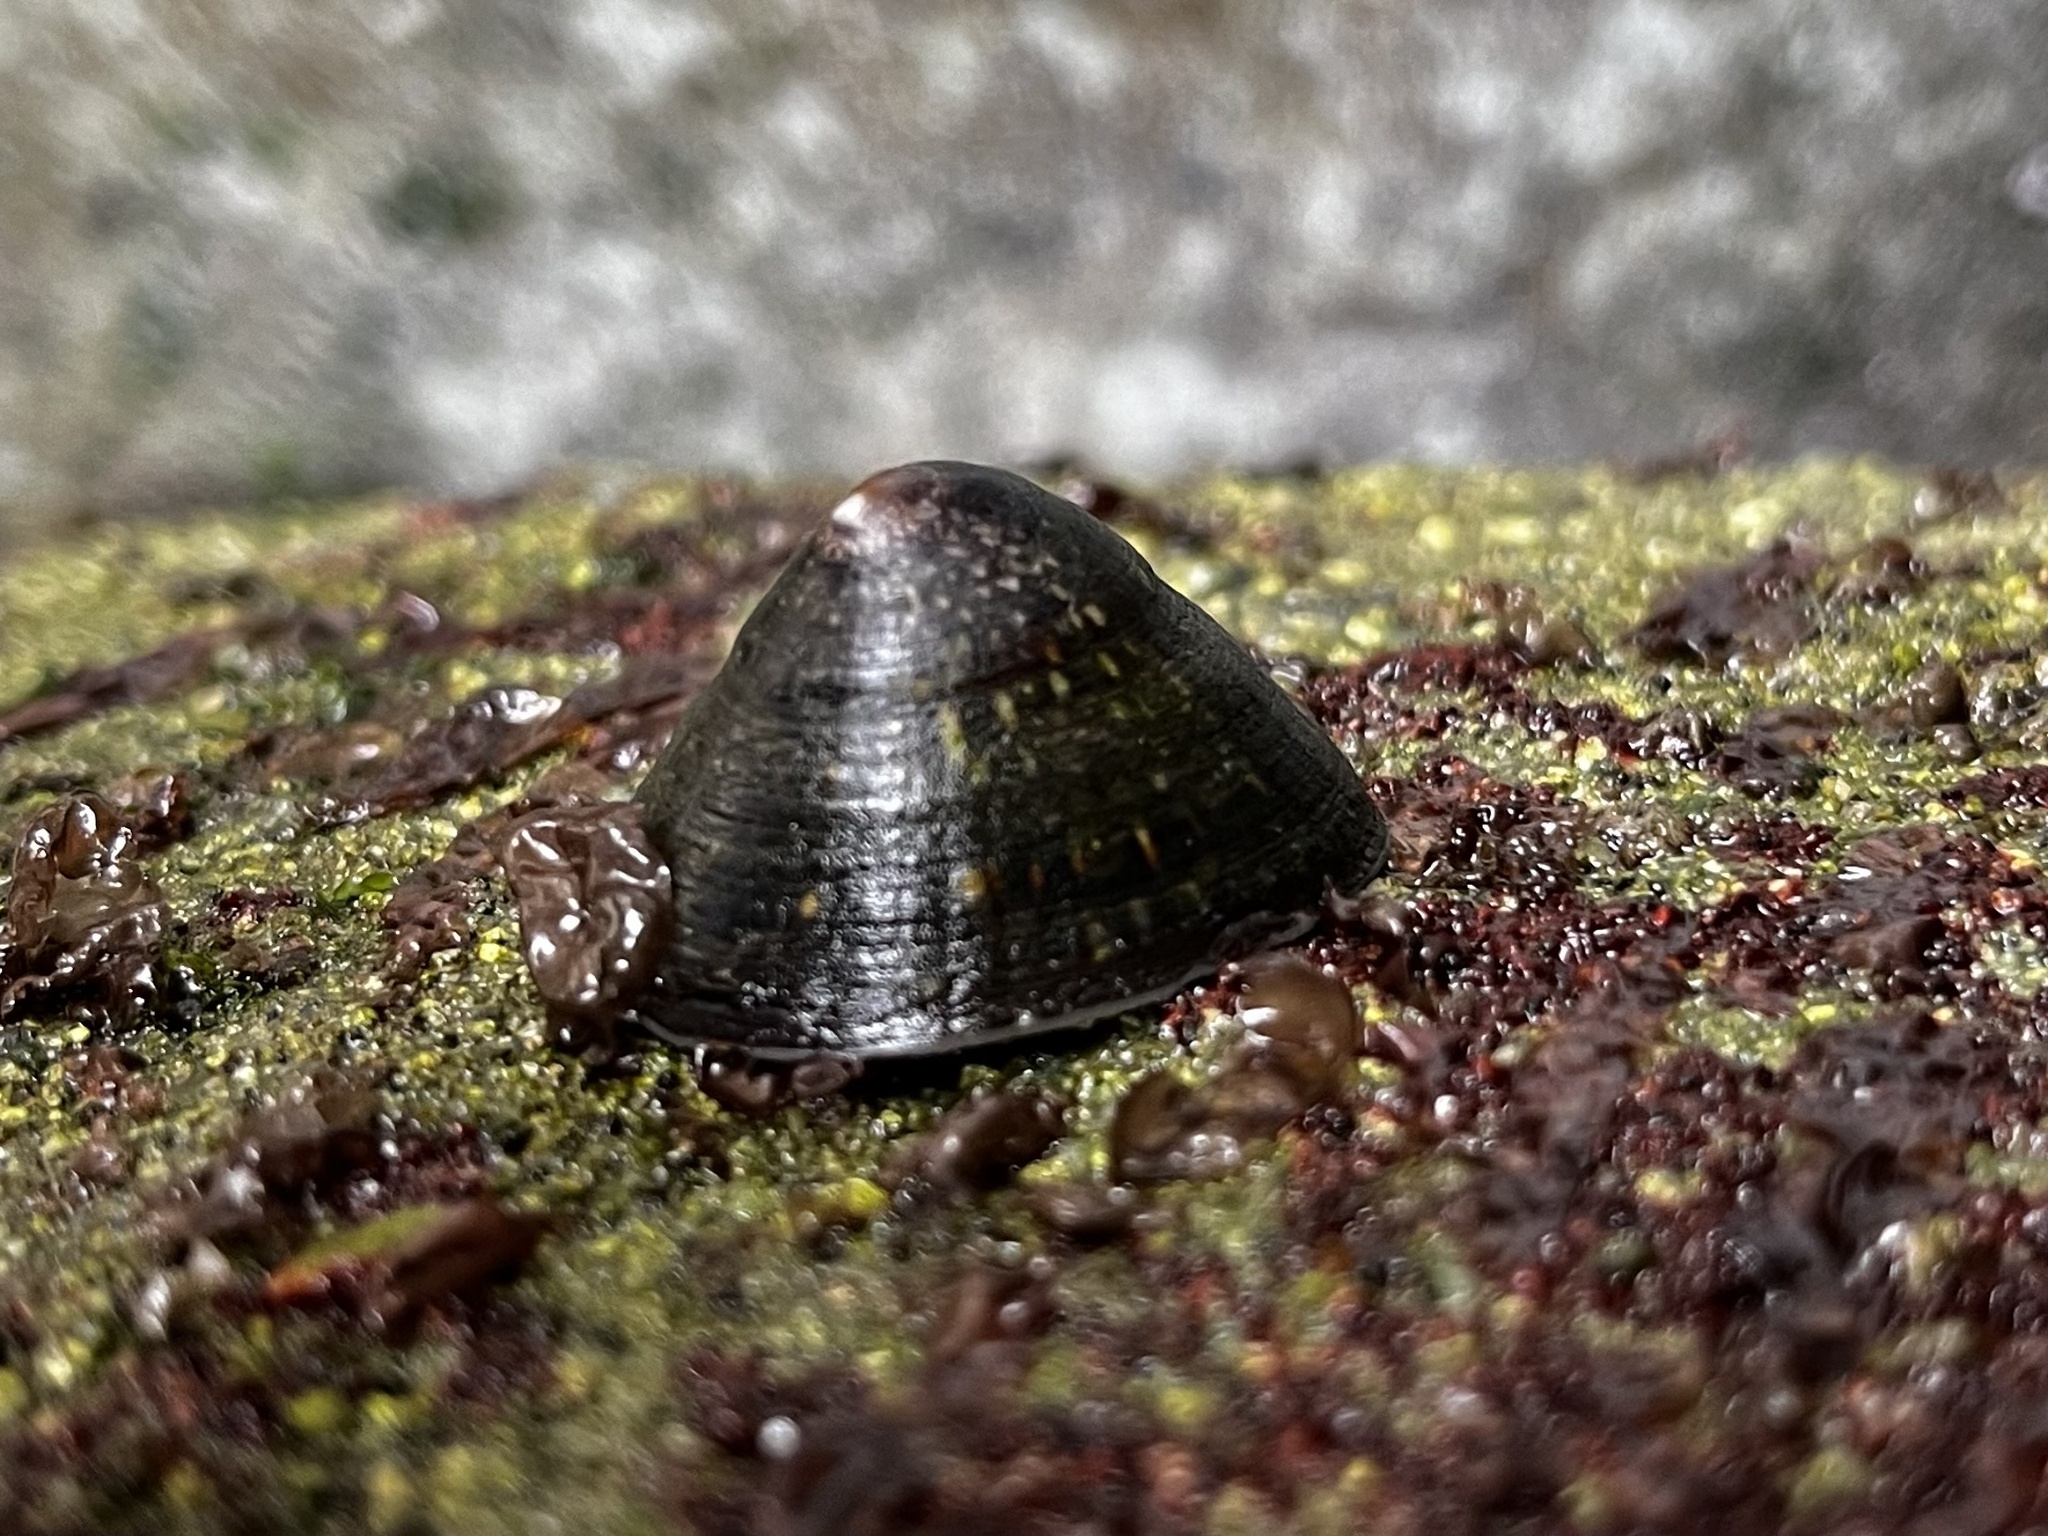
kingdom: Animalia
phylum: Mollusca
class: Gastropoda
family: Lottiidae
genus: Lottia
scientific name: Lottia orbignyi
